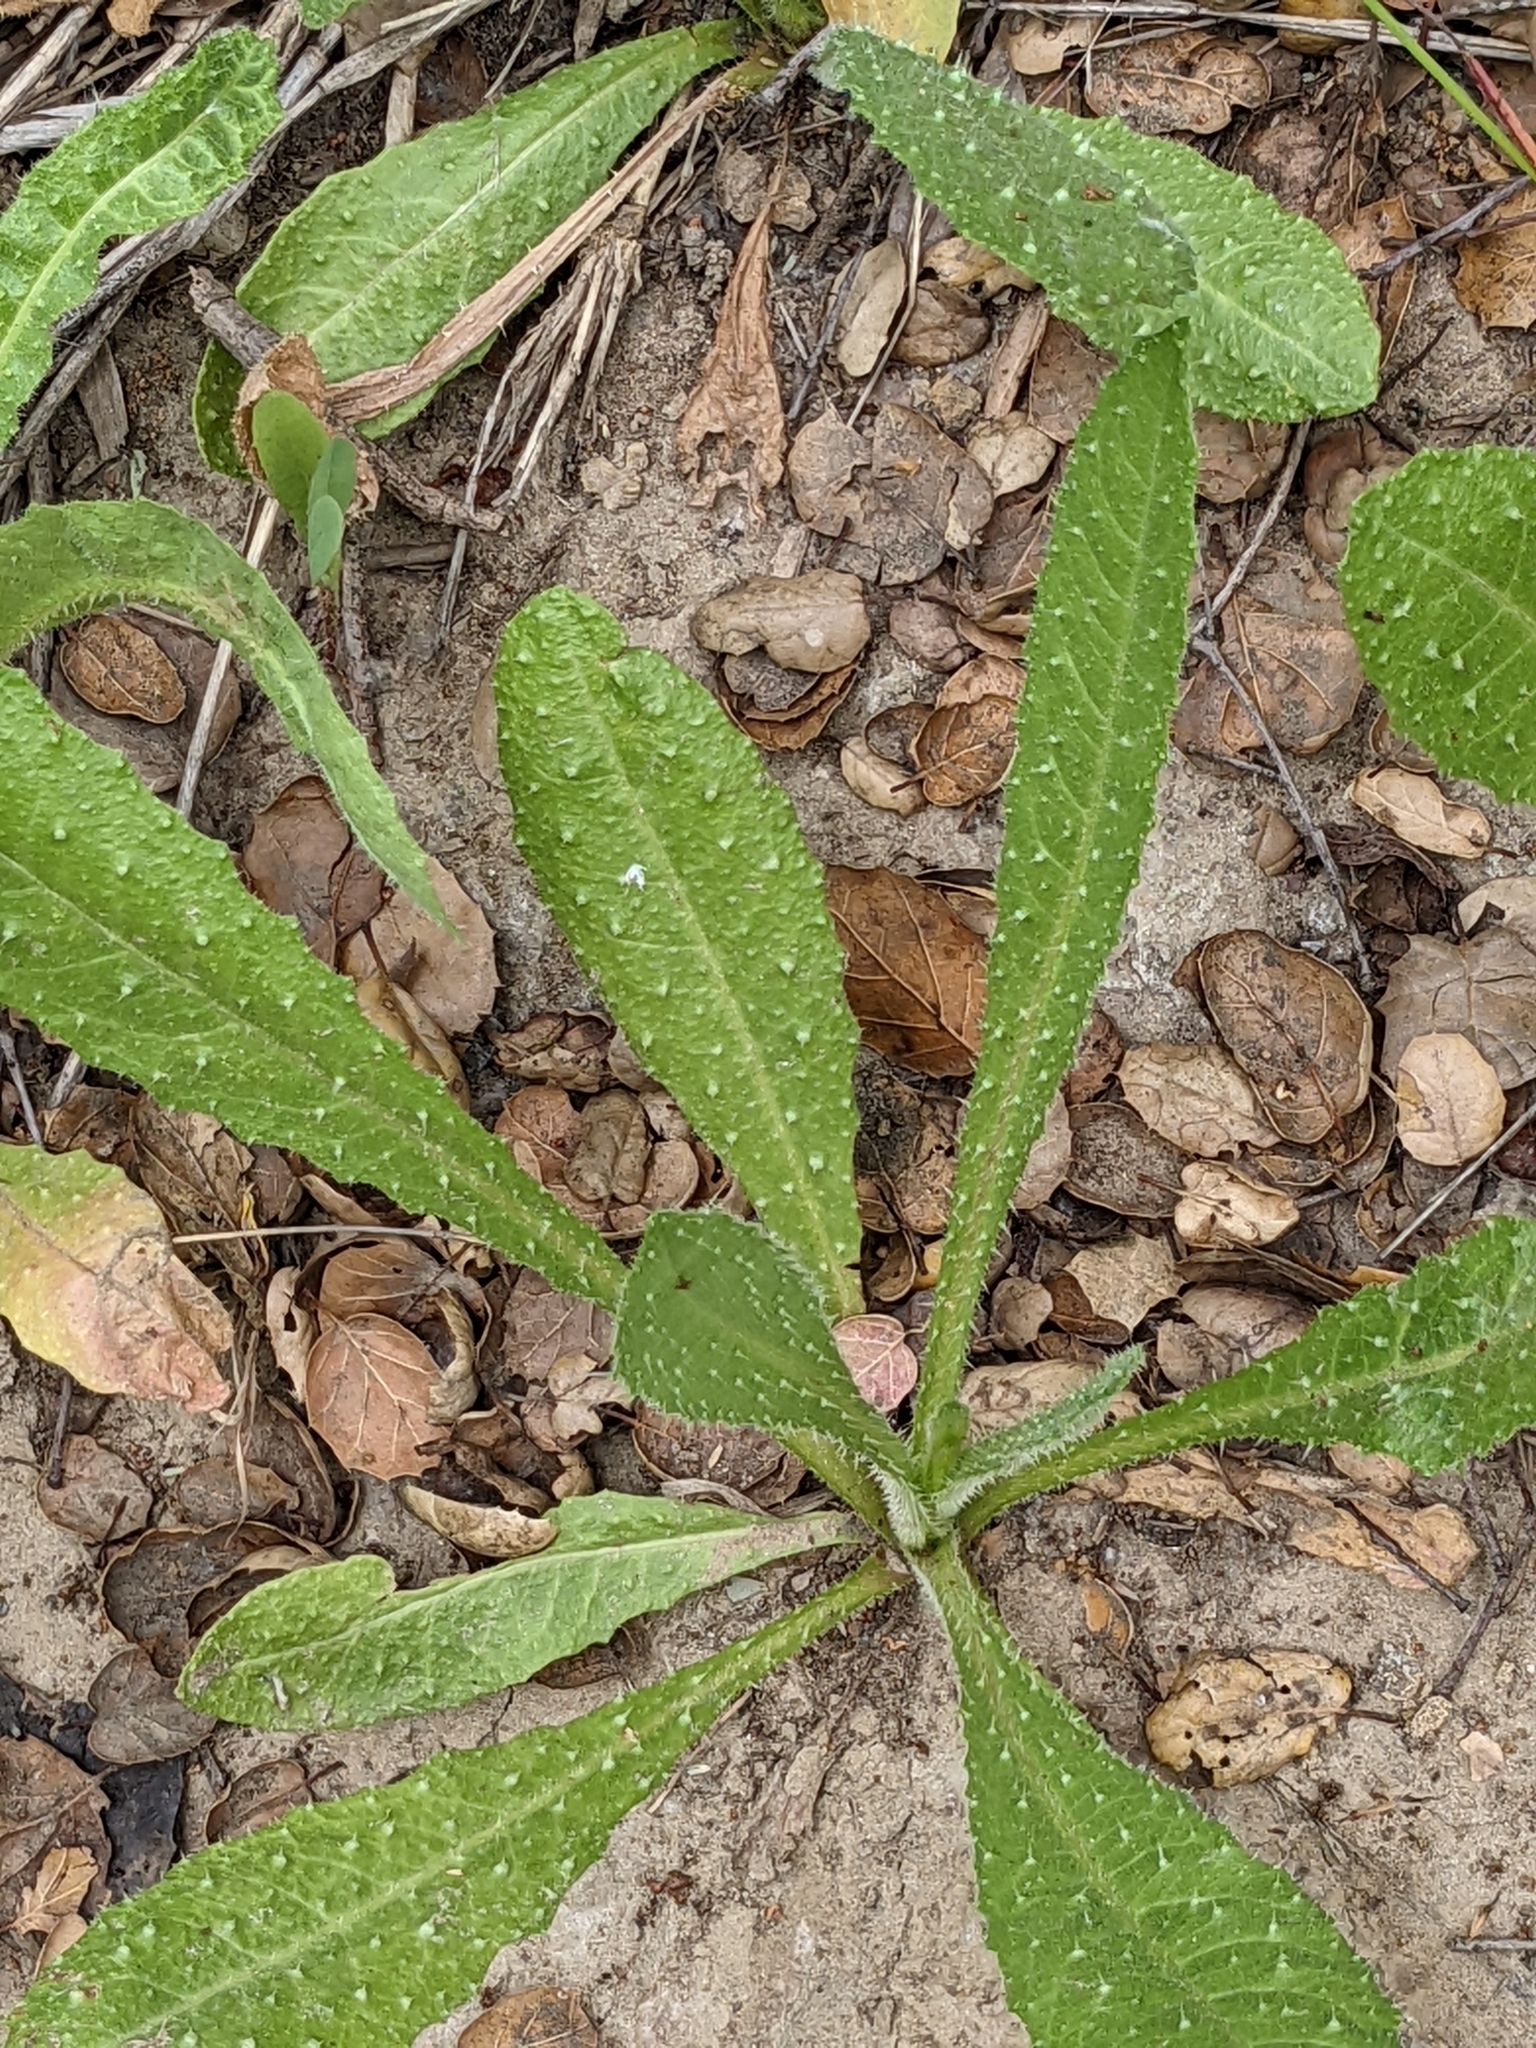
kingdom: Plantae
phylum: Tracheophyta
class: Magnoliopsida
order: Asterales
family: Asteraceae
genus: Helminthotheca
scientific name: Helminthotheca echioides
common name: Ox-tongue
